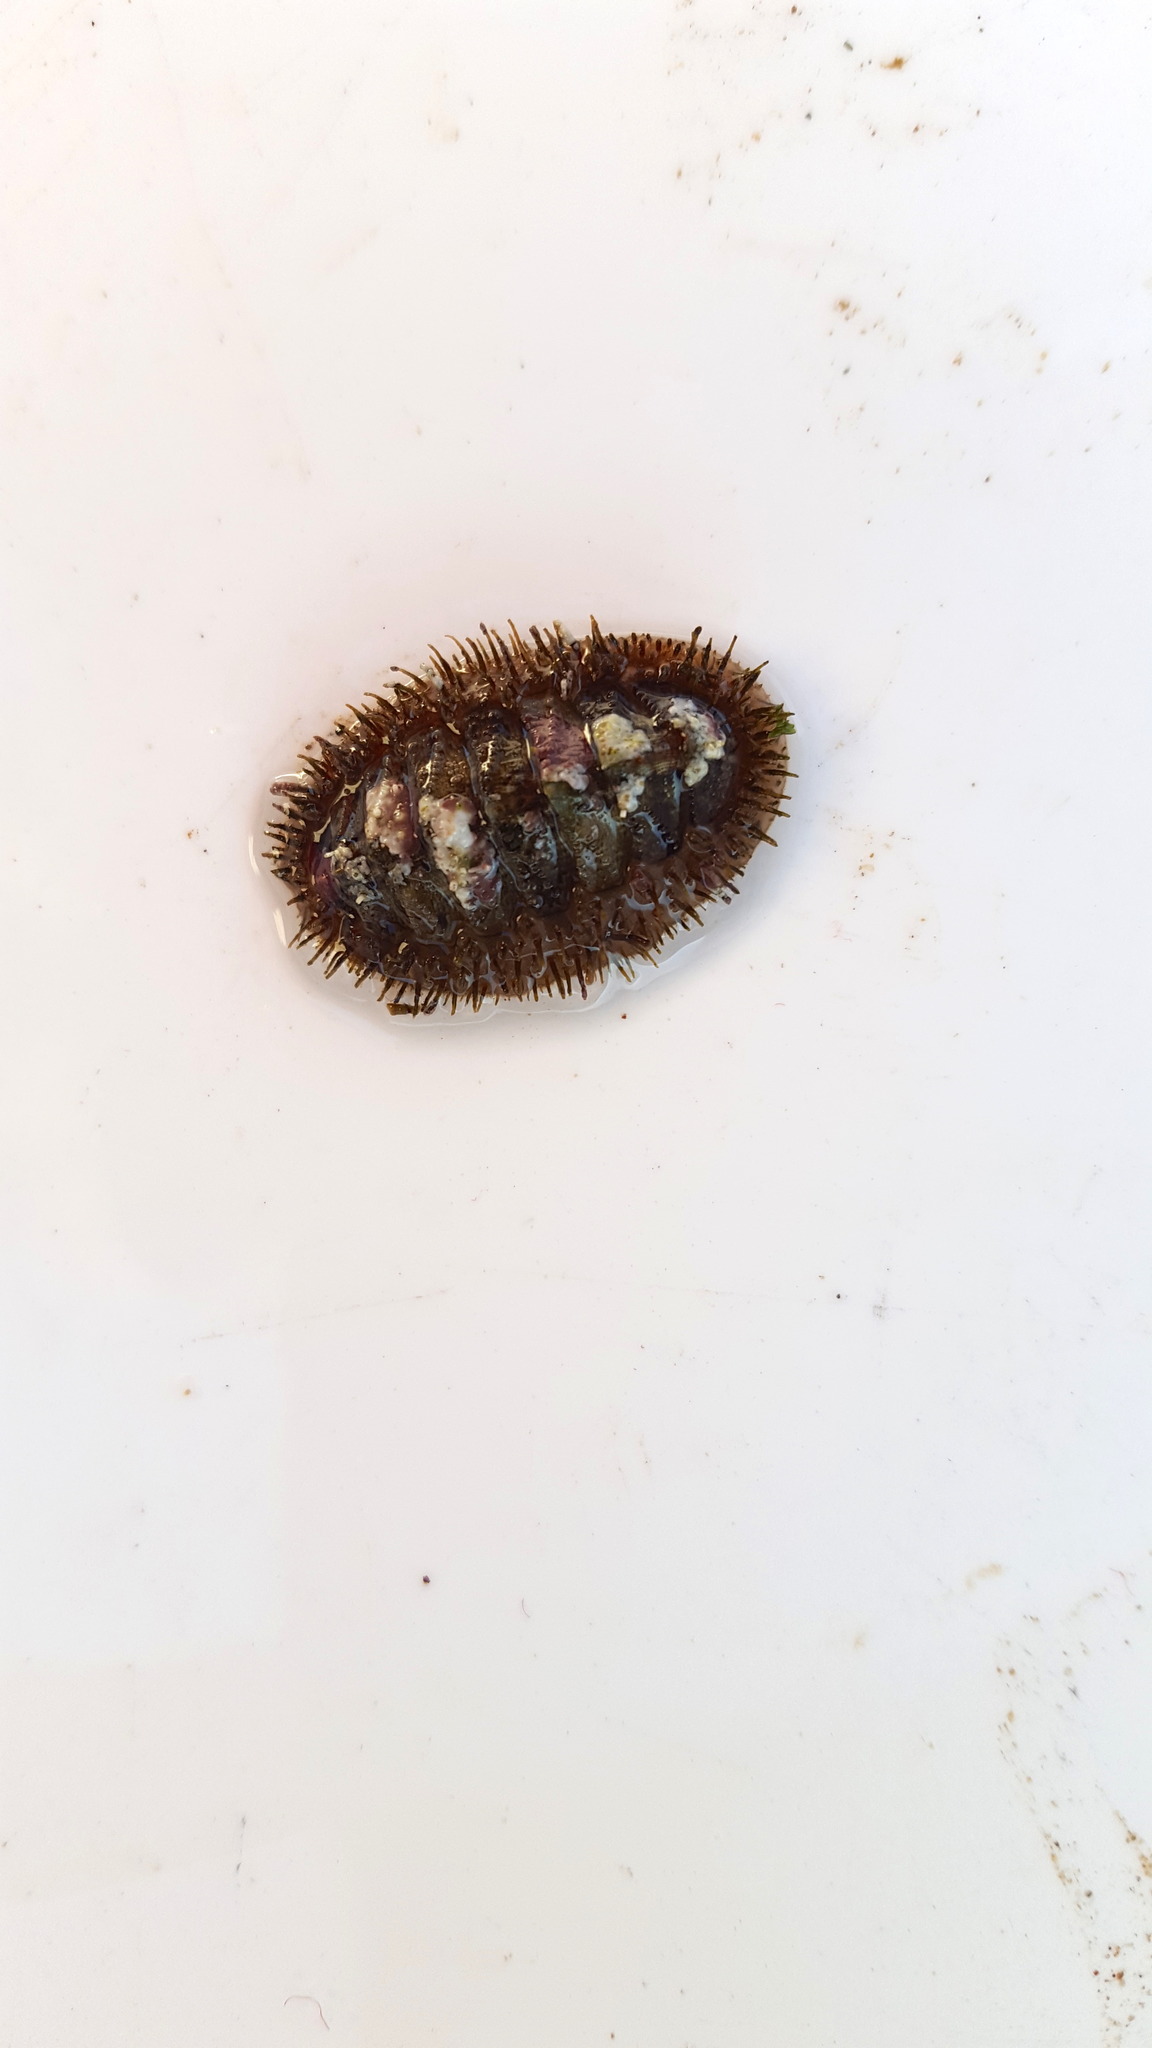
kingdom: Animalia
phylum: Mollusca
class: Polyplacophora
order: Chitonida
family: Mopaliidae
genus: Mopalia
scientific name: Mopalia muscosa
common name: Mossy chiton
